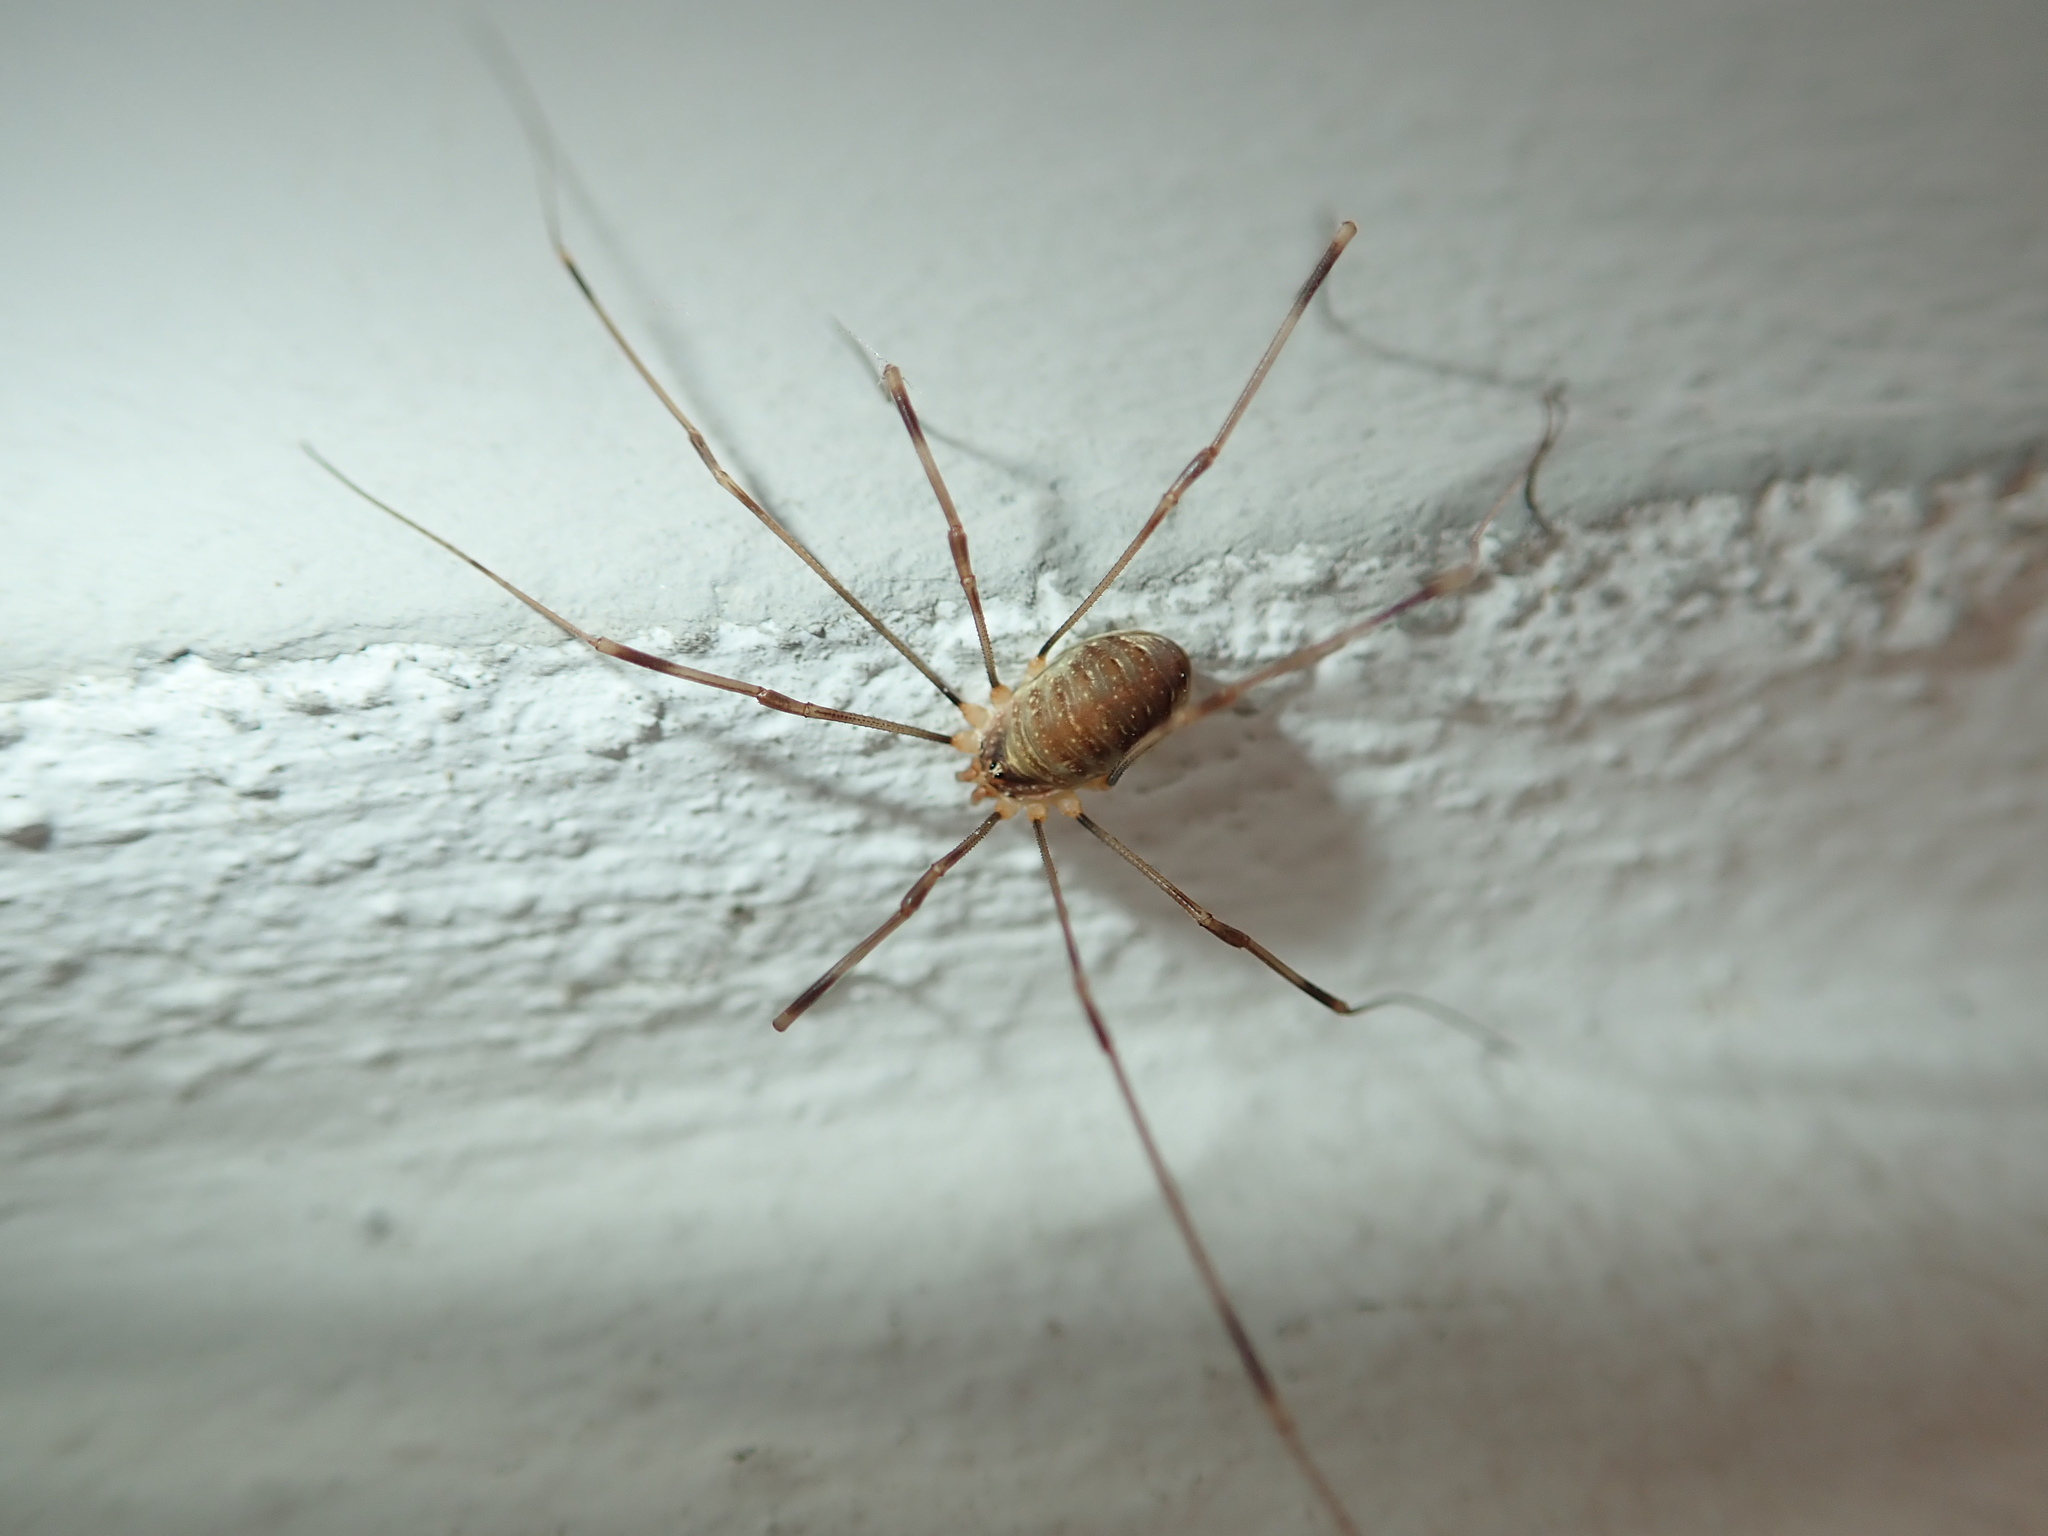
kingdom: Animalia
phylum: Arthropoda
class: Arachnida
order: Opiliones
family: Phalangiidae
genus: Opilio
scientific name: Opilio canestrinii
